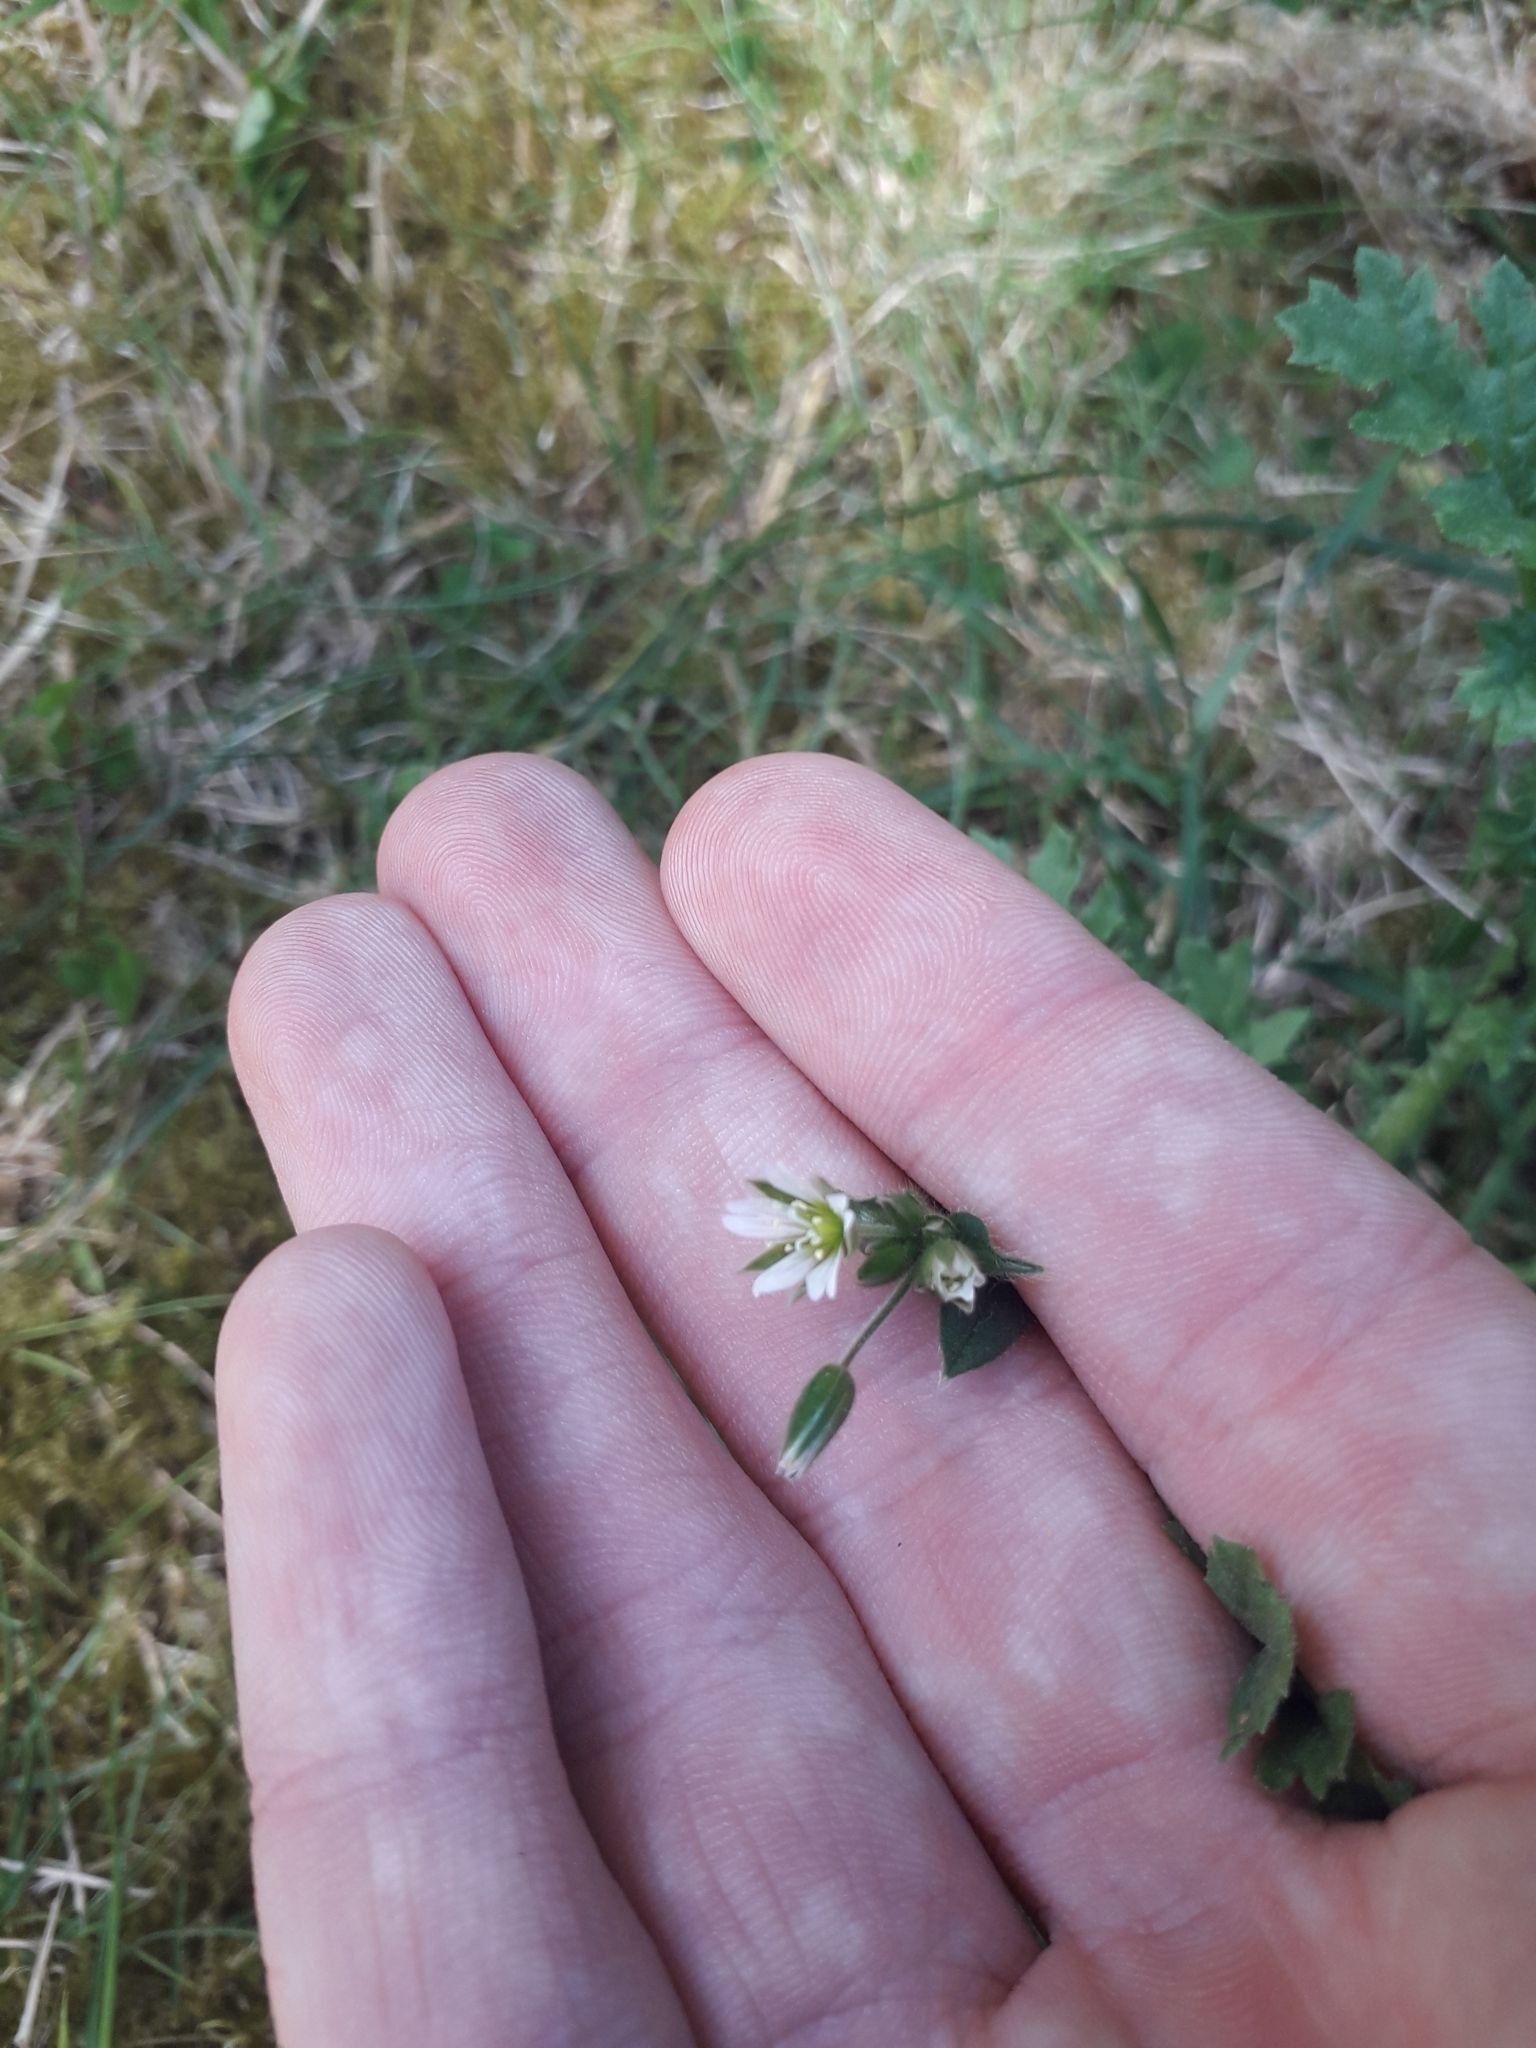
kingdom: Plantae
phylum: Tracheophyta
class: Magnoliopsida
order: Caryophyllales
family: Caryophyllaceae
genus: Cerastium
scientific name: Cerastium holosteoides
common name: Big chickweed
